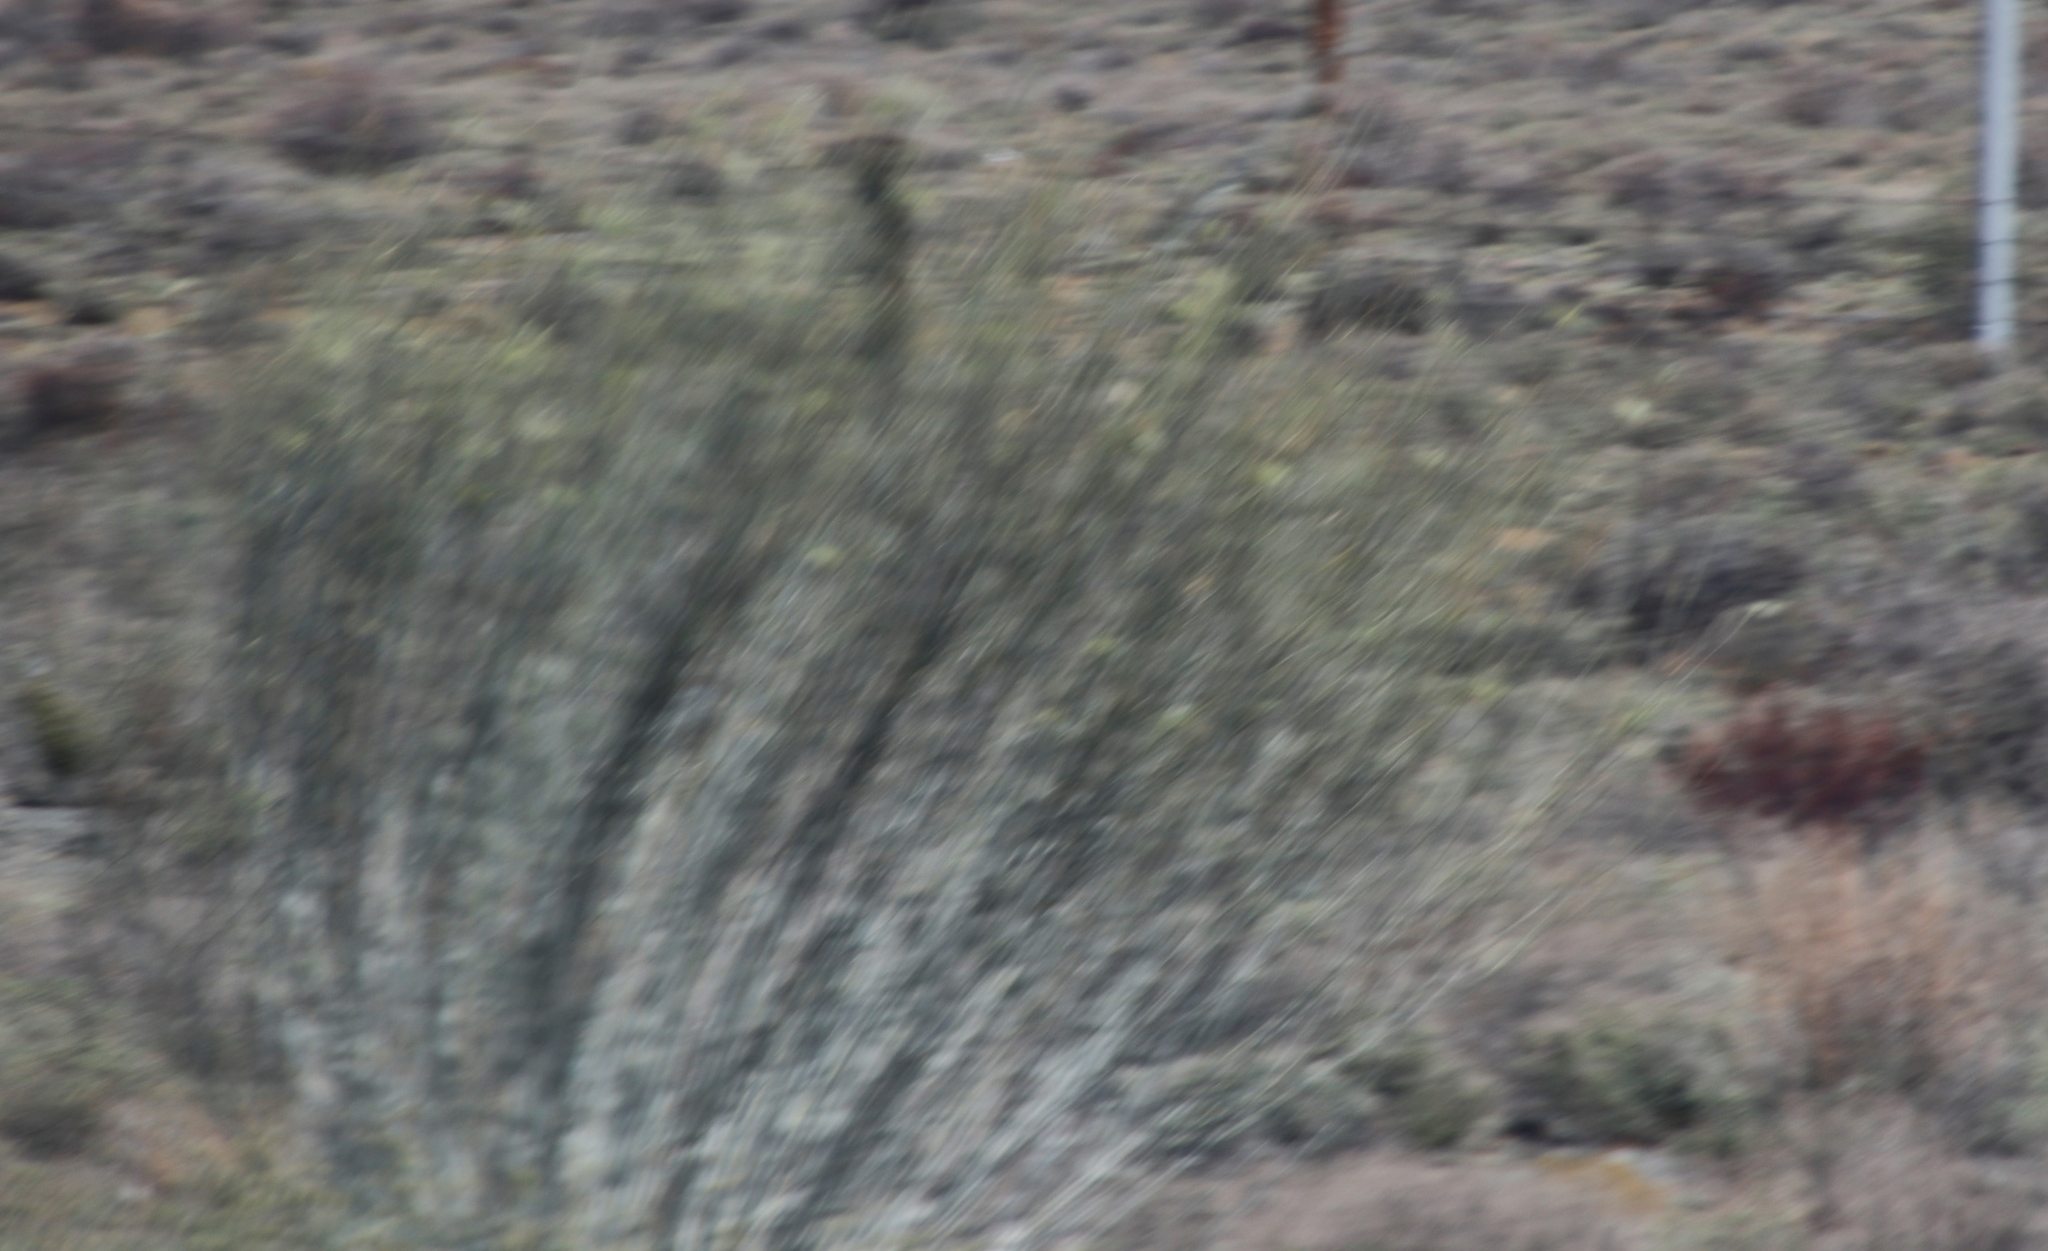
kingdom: Plantae
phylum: Tracheophyta
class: Magnoliopsida
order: Gentianales
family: Apocynaceae
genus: Gomphocarpus
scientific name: Gomphocarpus filiformis
